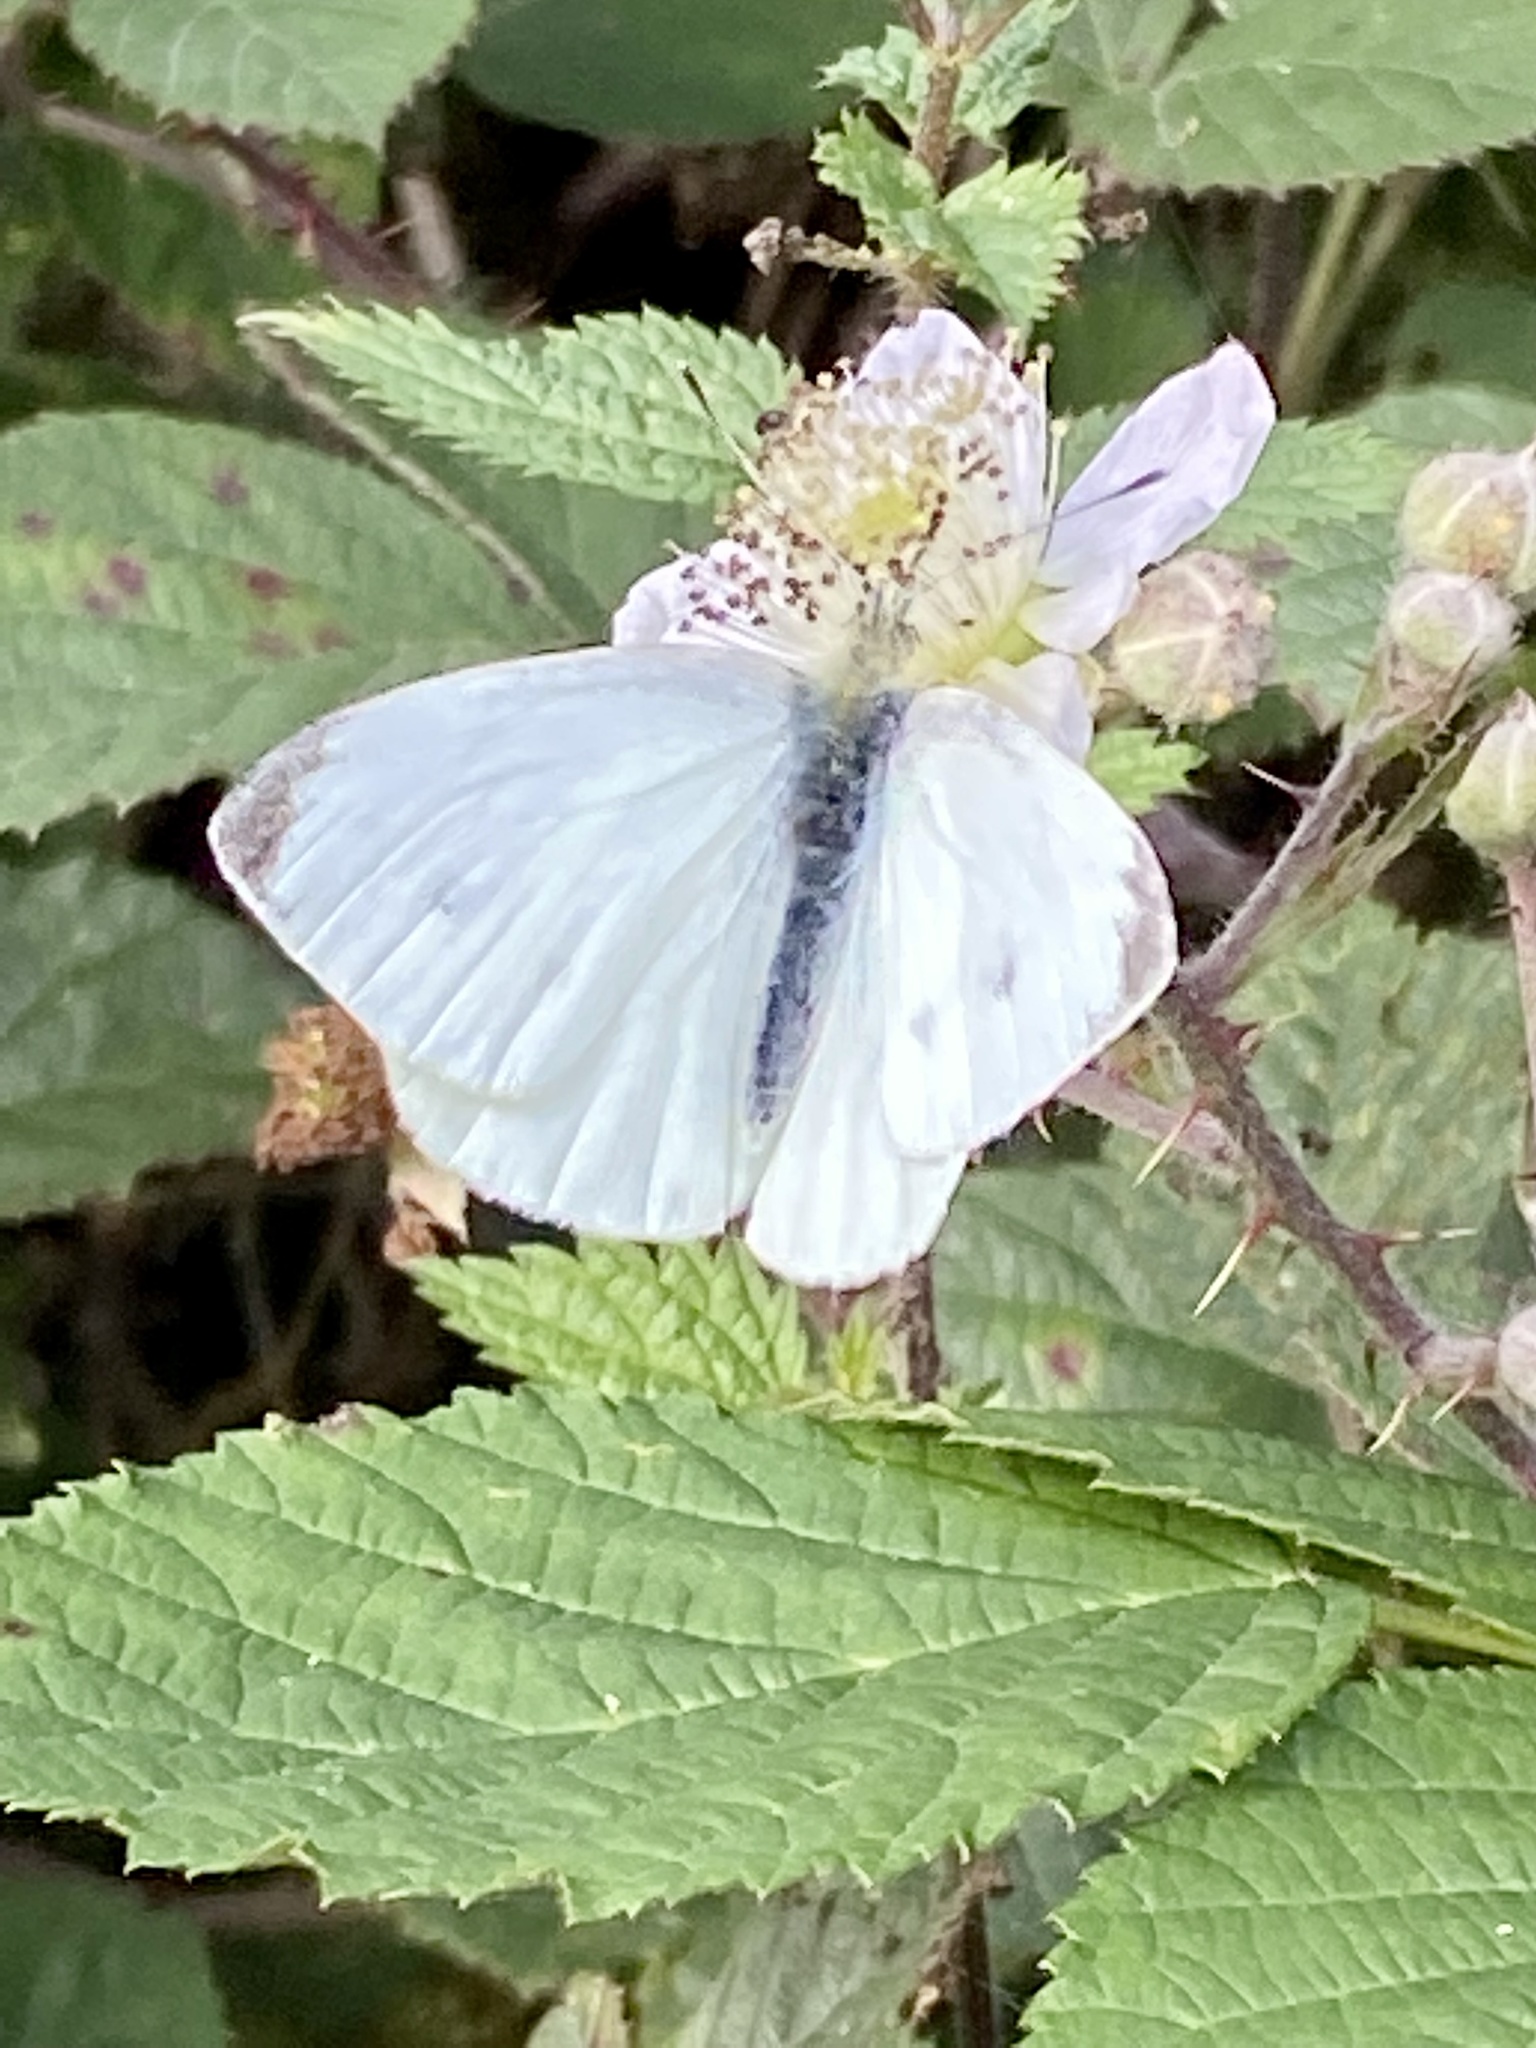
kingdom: Animalia
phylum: Arthropoda
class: Insecta
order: Lepidoptera
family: Pieridae
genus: Pieris
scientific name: Pieris rapae
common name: Small white
